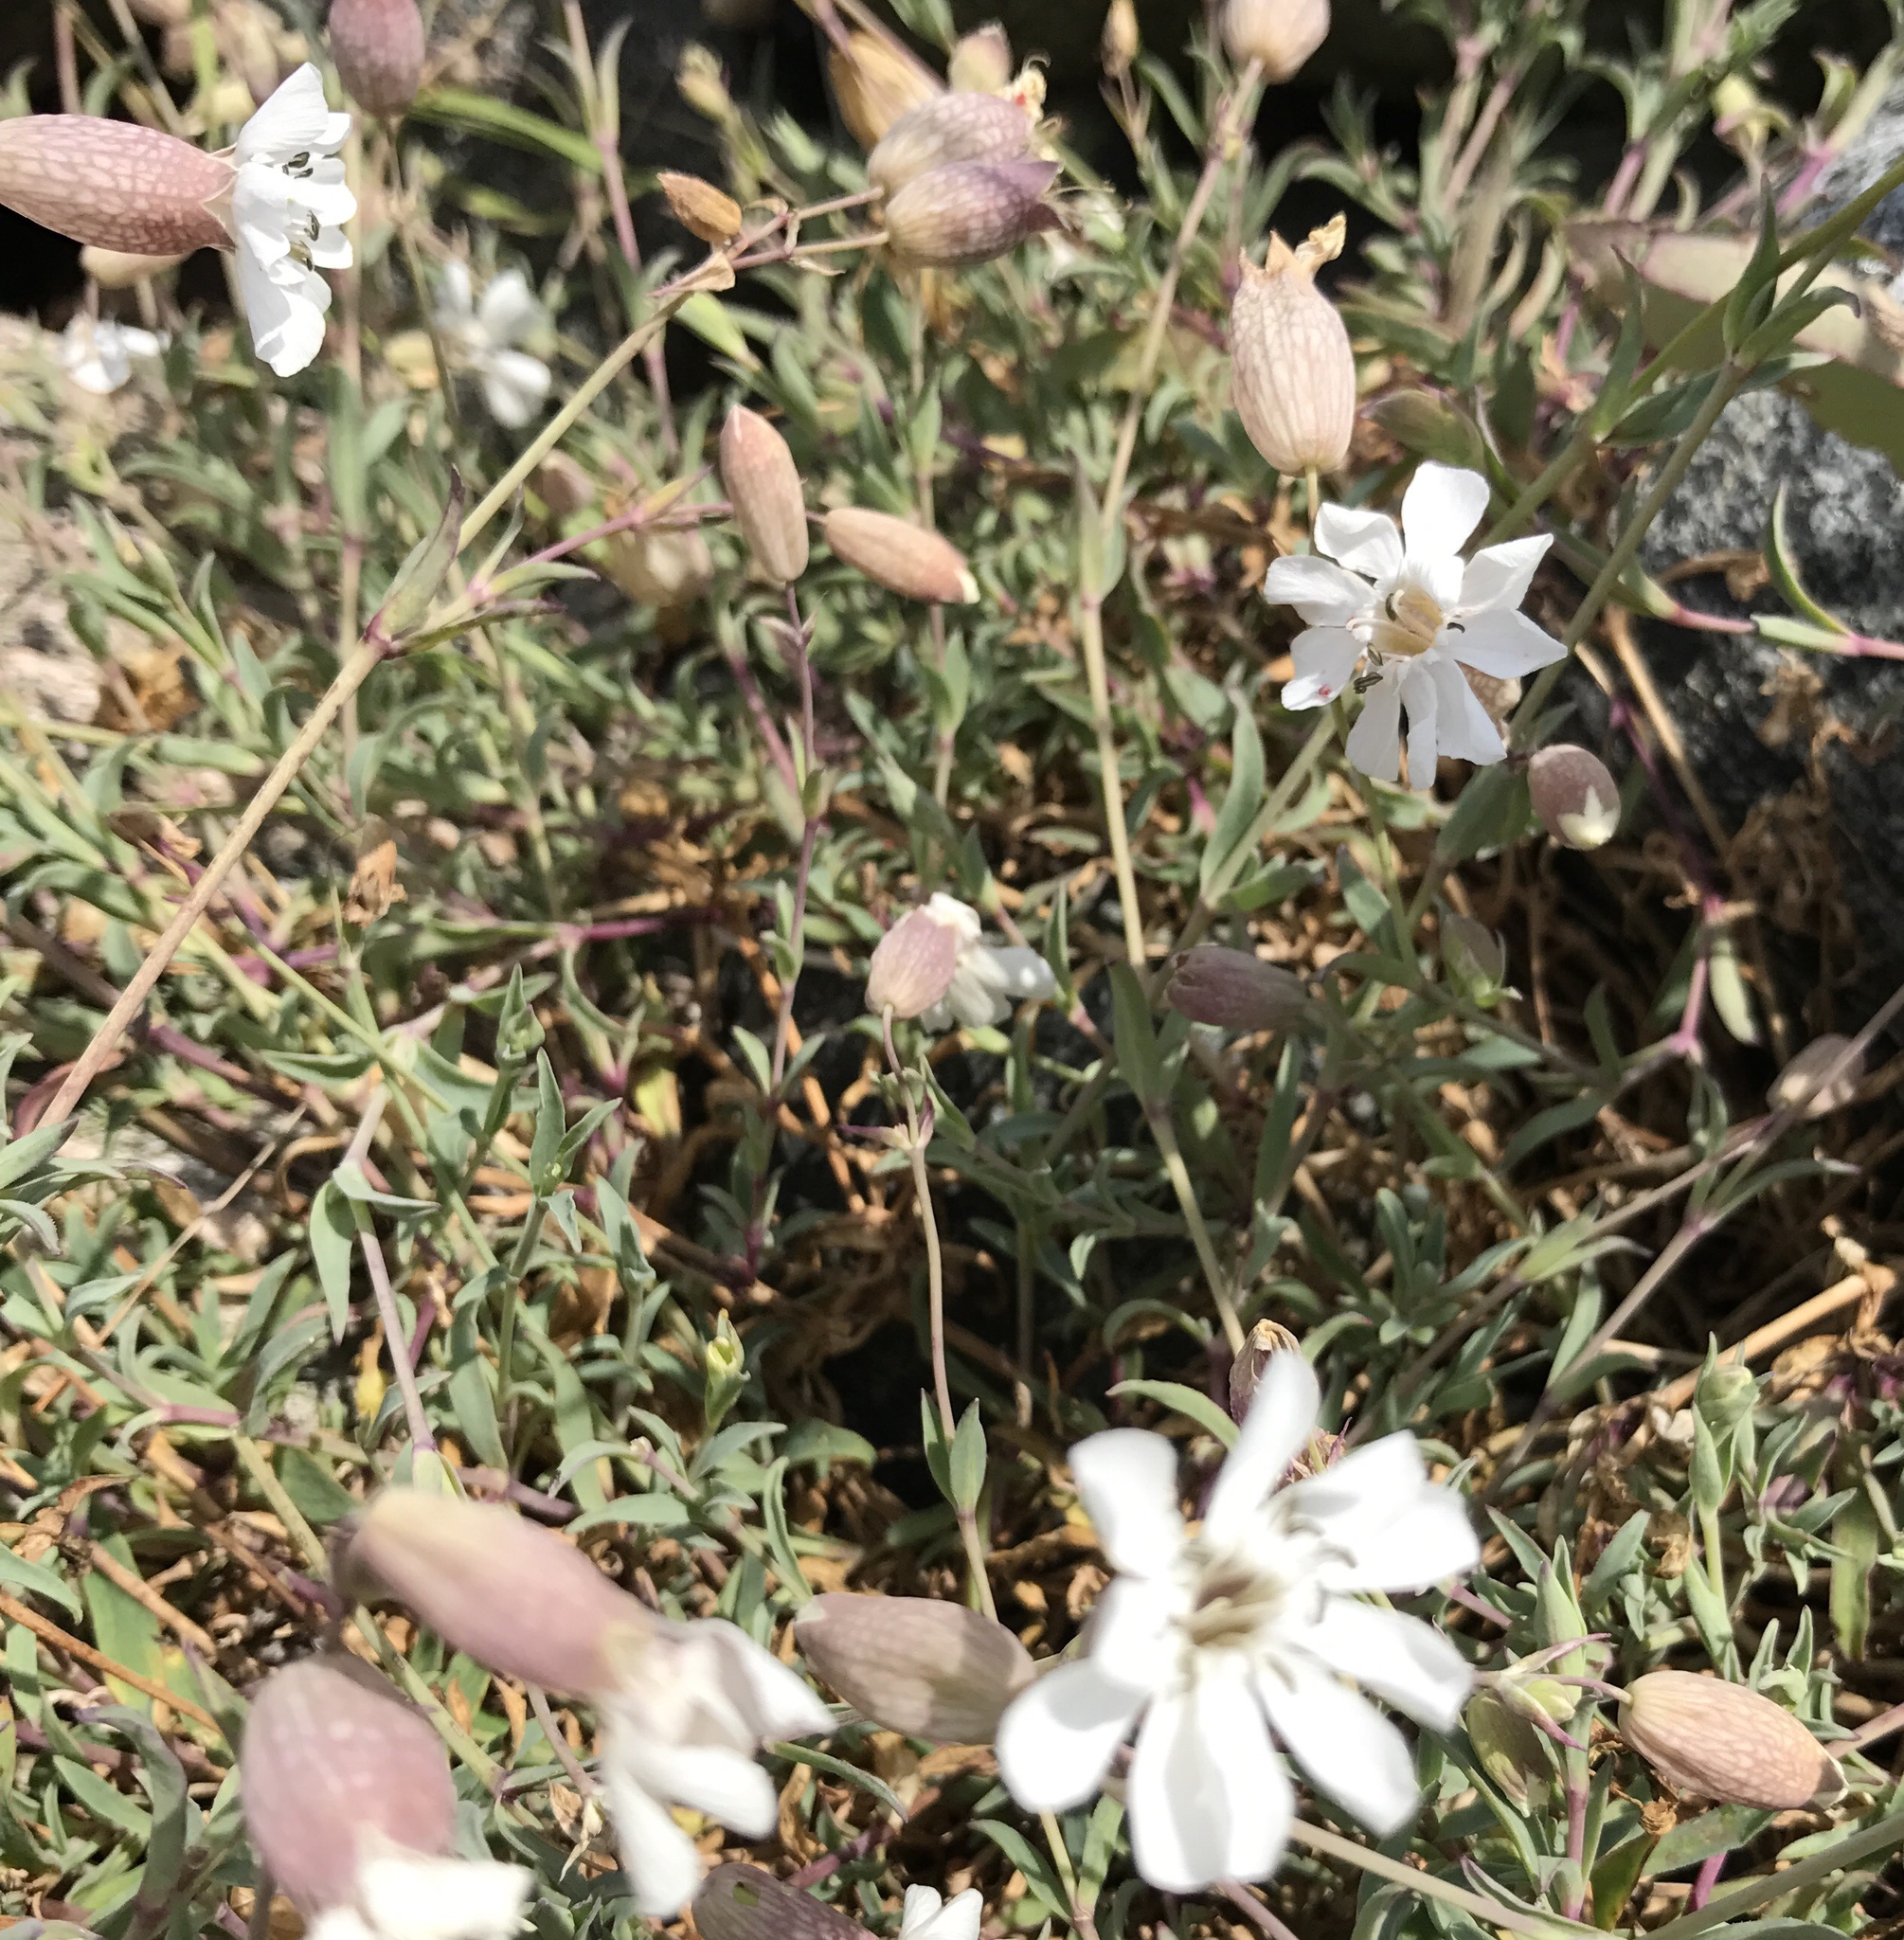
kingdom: Plantae
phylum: Tracheophyta
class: Magnoliopsida
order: Caryophyllales
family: Caryophyllaceae
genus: Silene
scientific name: Silene uniflora
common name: Sea campion
